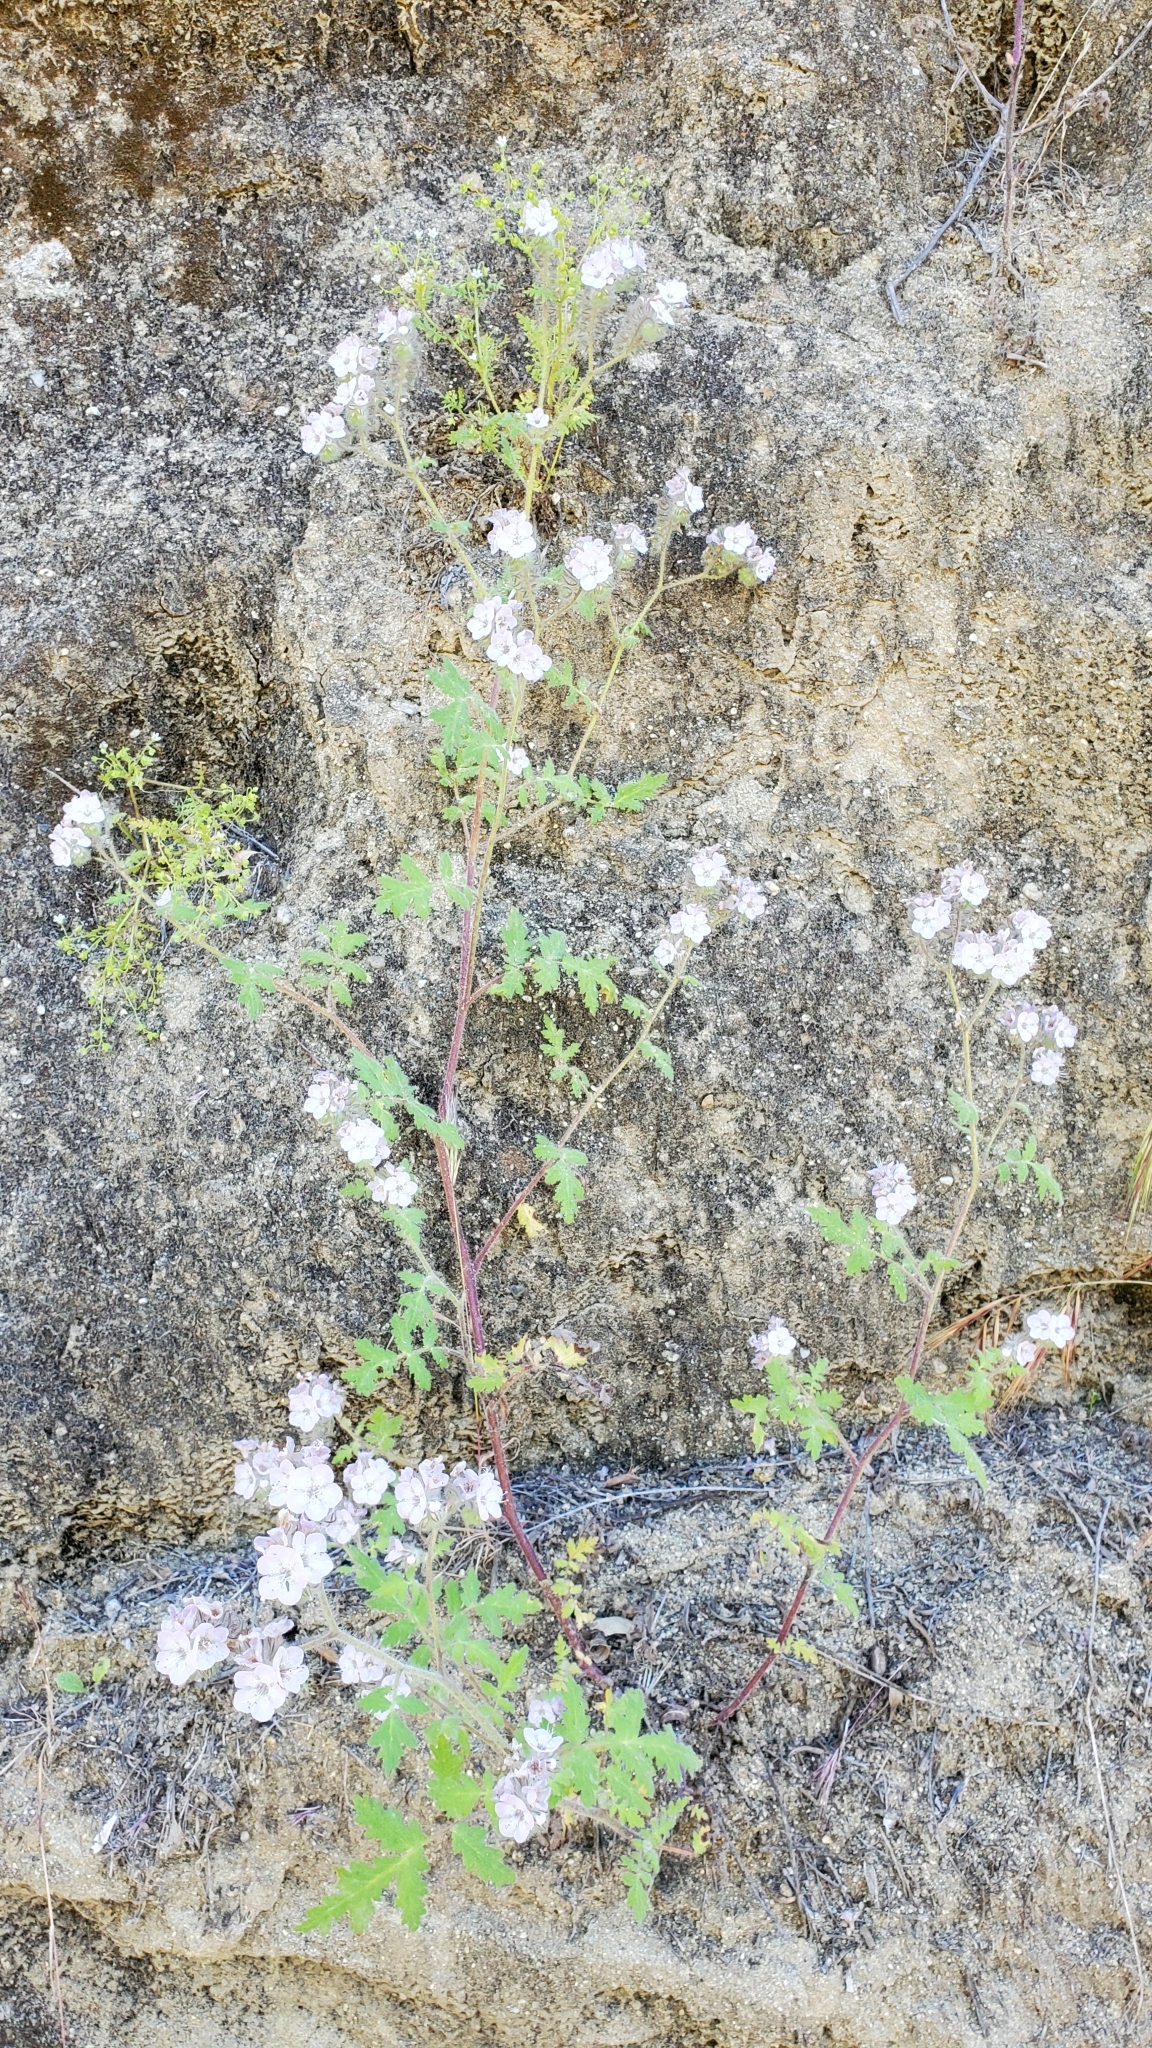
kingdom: Plantae
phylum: Tracheophyta
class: Magnoliopsida
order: Boraginales
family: Hydrophyllaceae
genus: Phacelia
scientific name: Phacelia cicutaria
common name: Caterpillar phacelia
